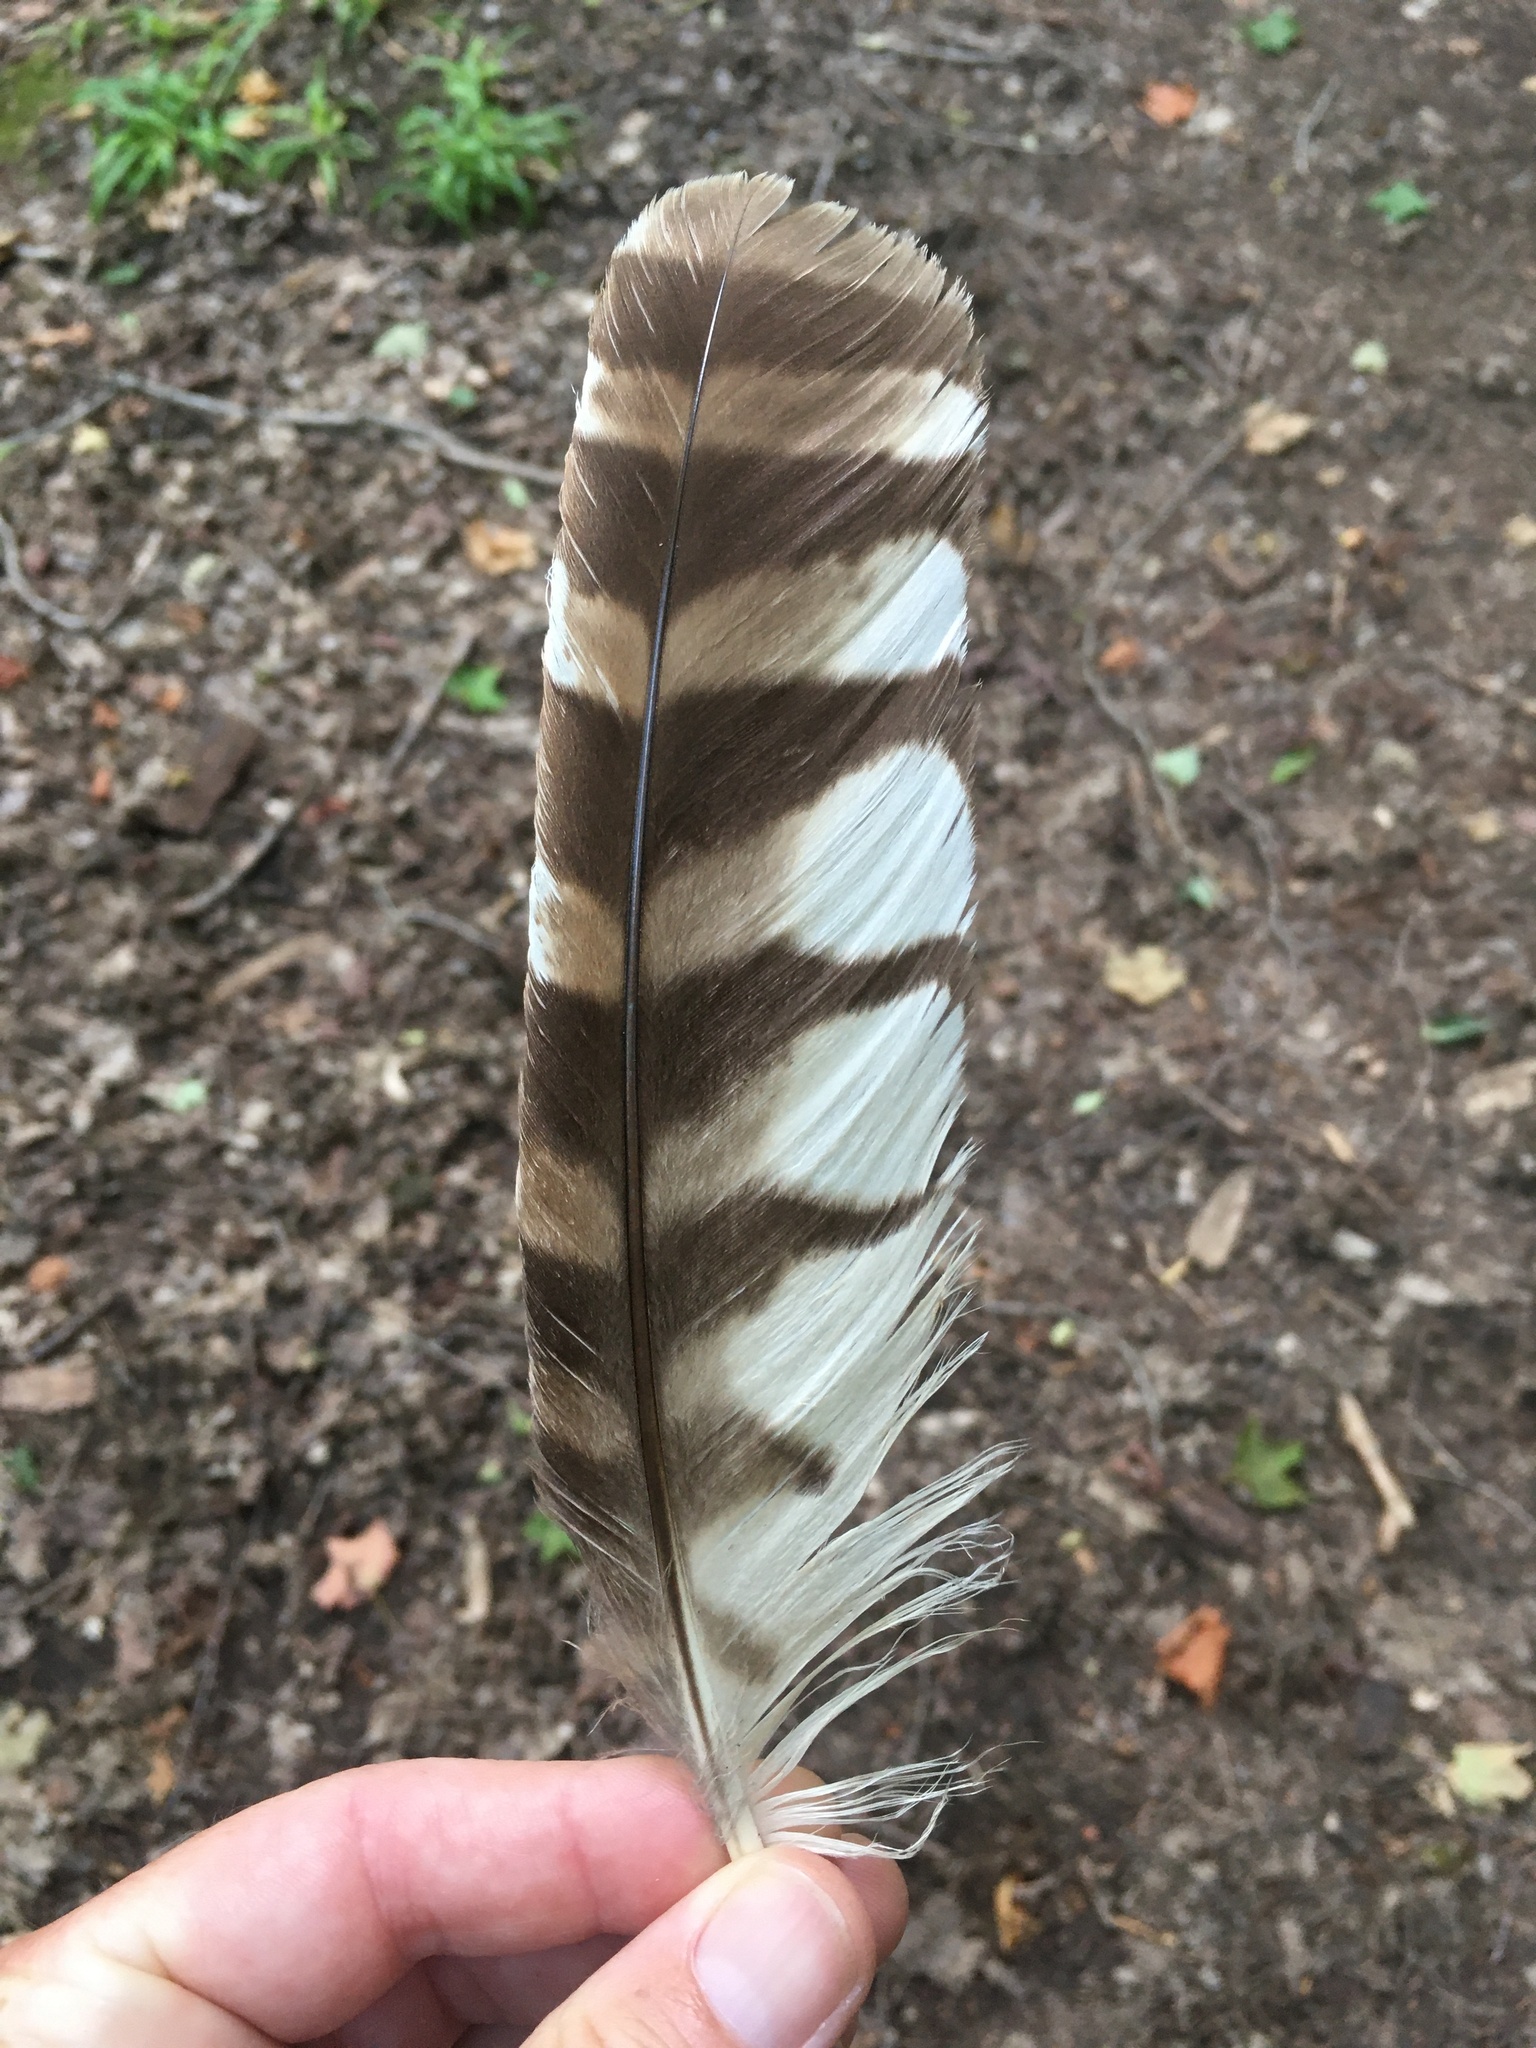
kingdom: Animalia
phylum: Chordata
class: Aves
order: Strigiformes
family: Strigidae
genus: Strix
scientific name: Strix varia
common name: Barred owl
